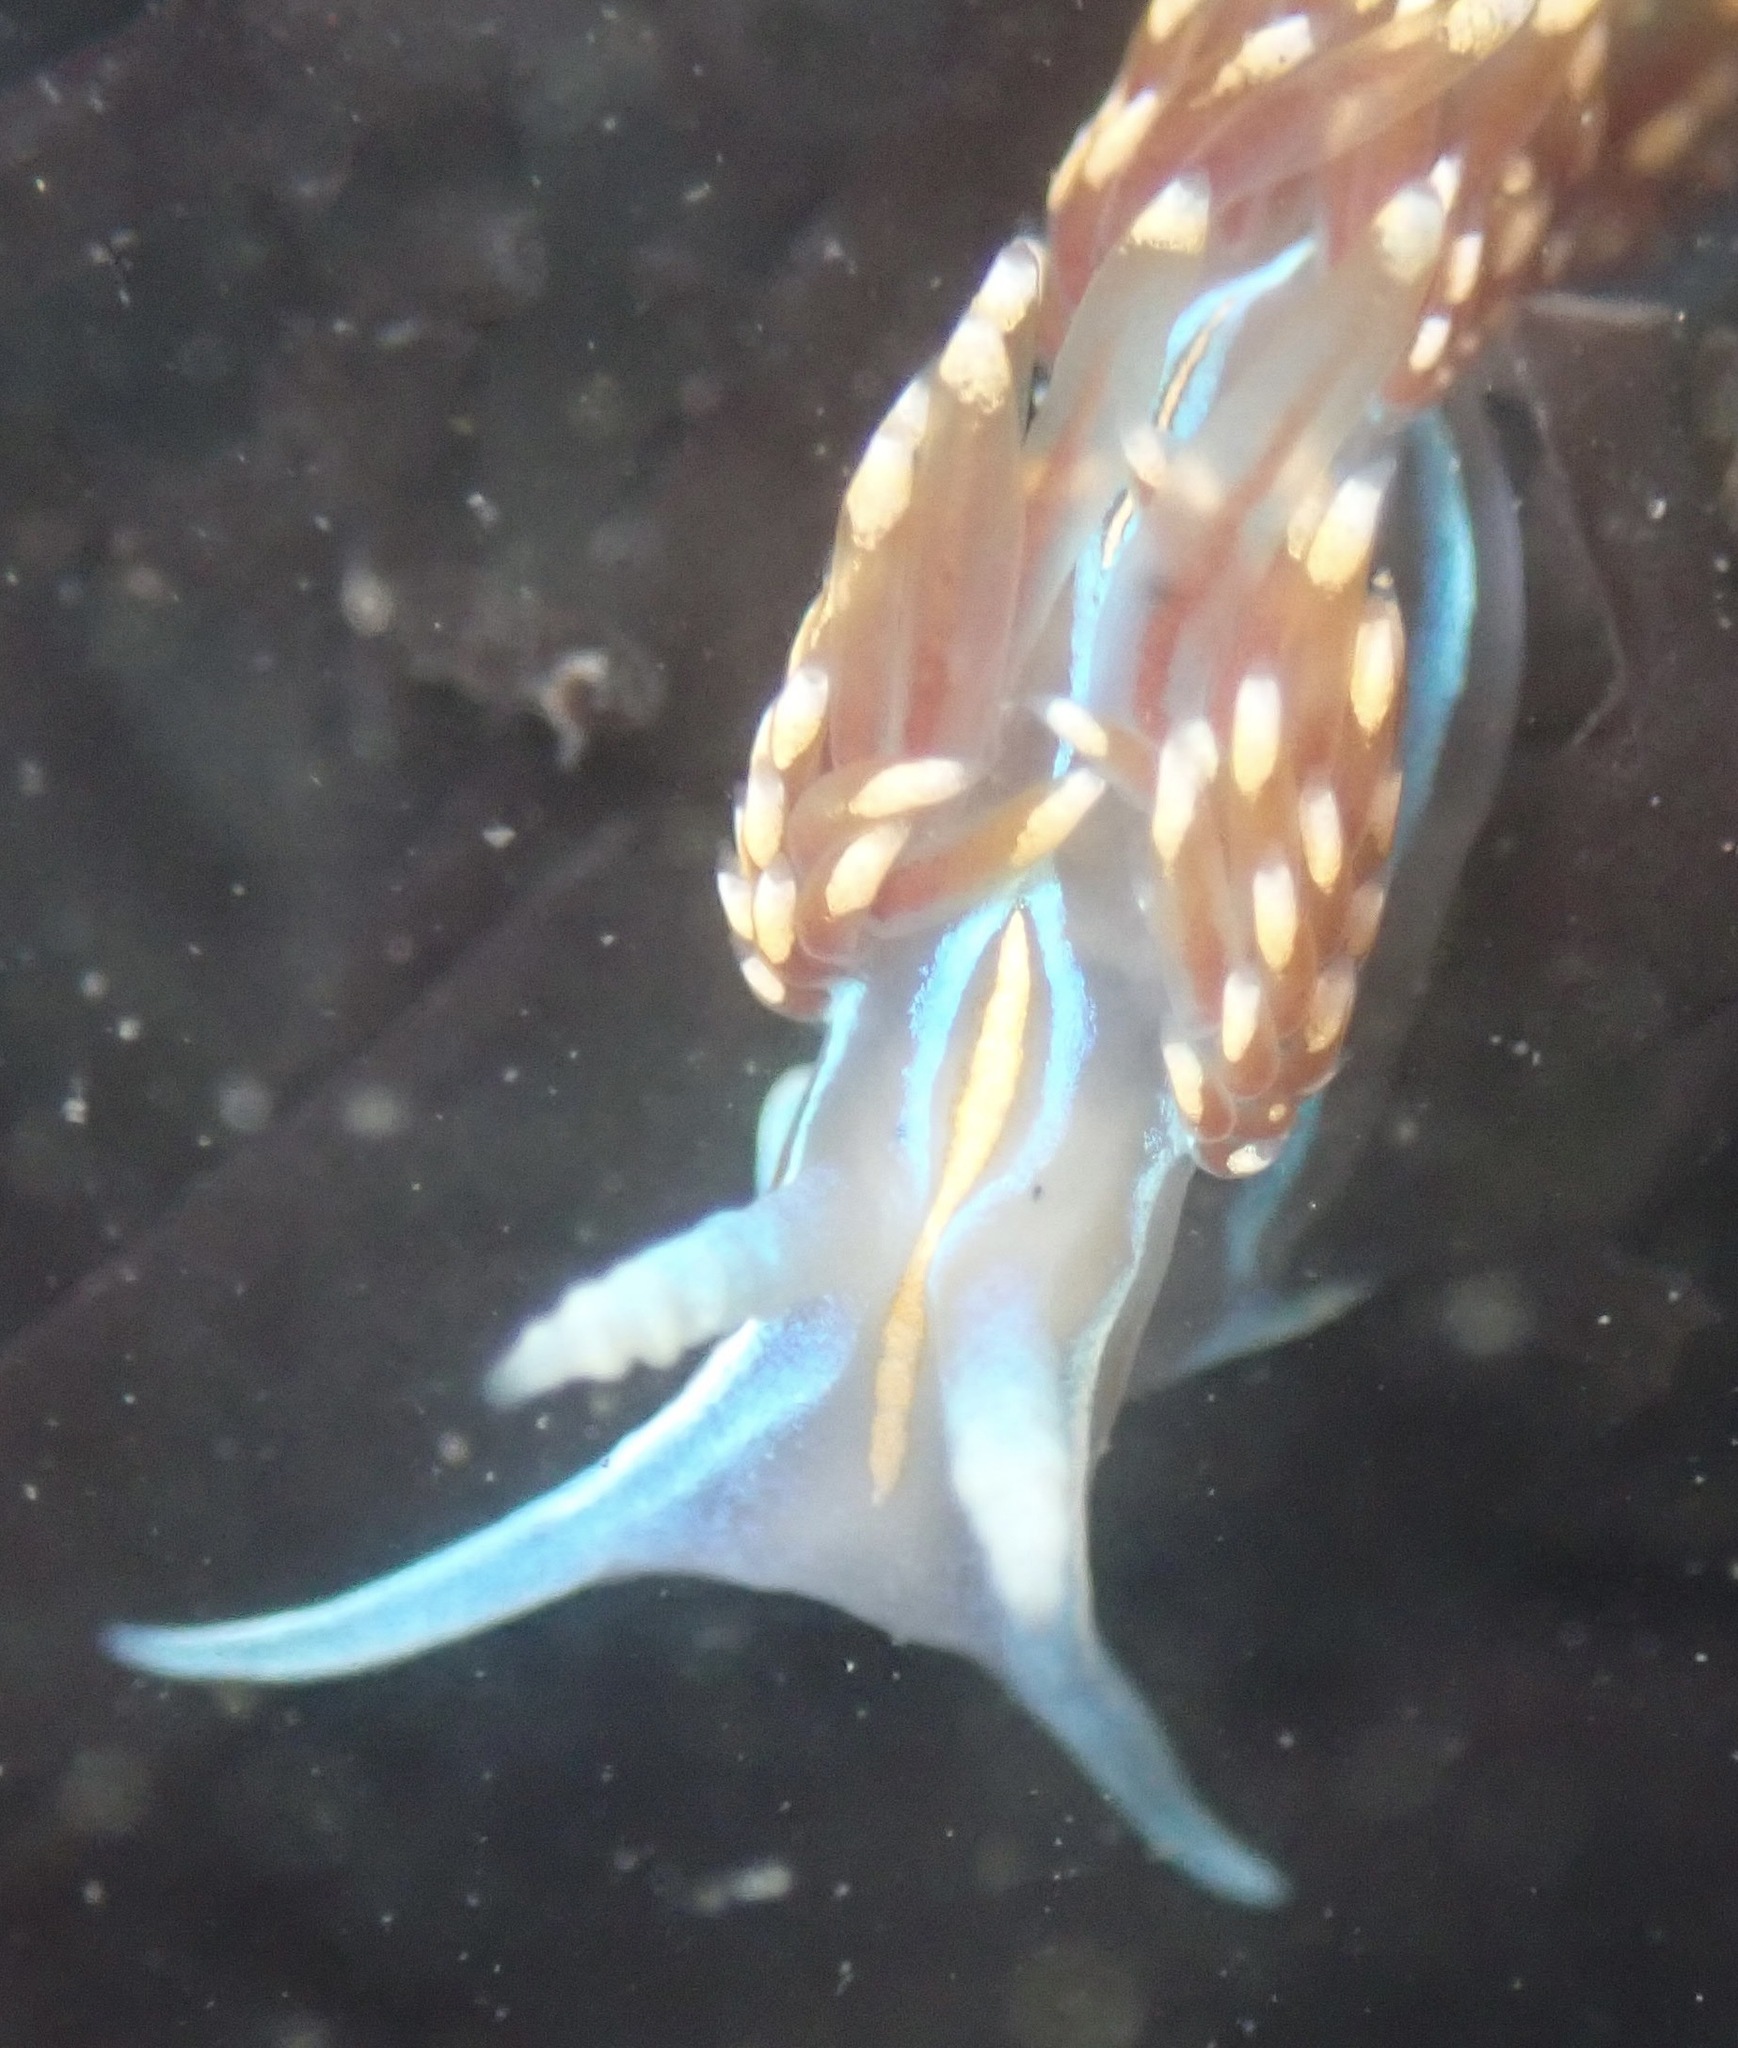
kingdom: Animalia
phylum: Mollusca
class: Gastropoda
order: Nudibranchia
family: Myrrhinidae
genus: Hermissenda
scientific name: Hermissenda opalescens
